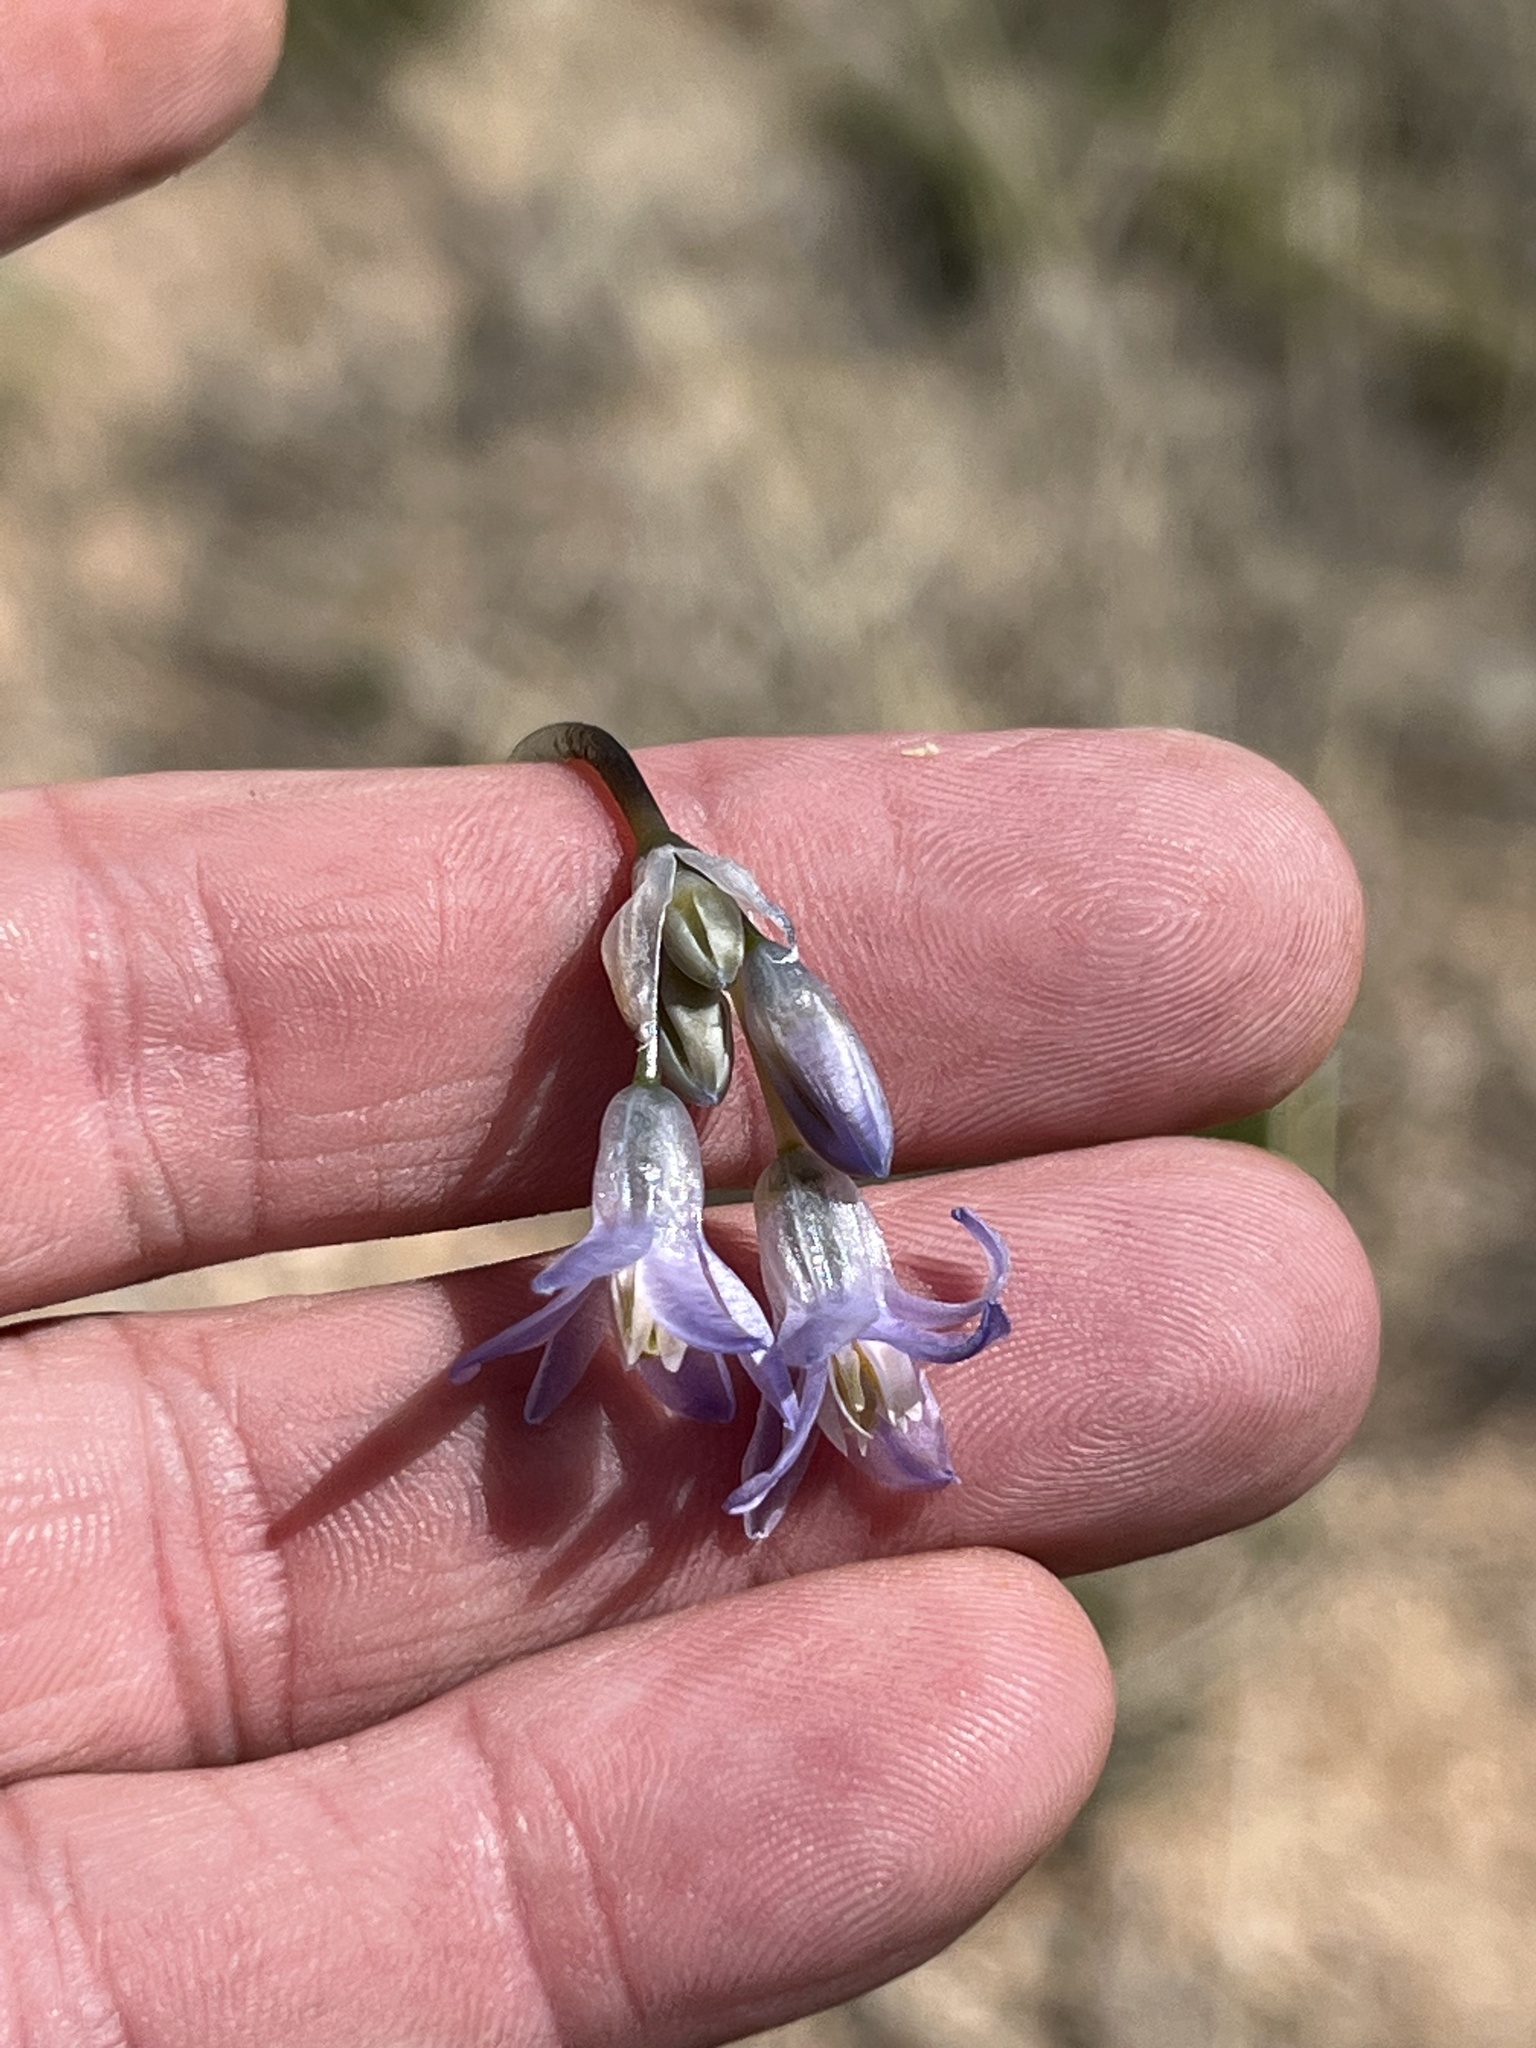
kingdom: Plantae
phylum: Tracheophyta
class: Liliopsida
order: Asparagales
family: Asparagaceae
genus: Dipterostemon
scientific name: Dipterostemon capitatus
